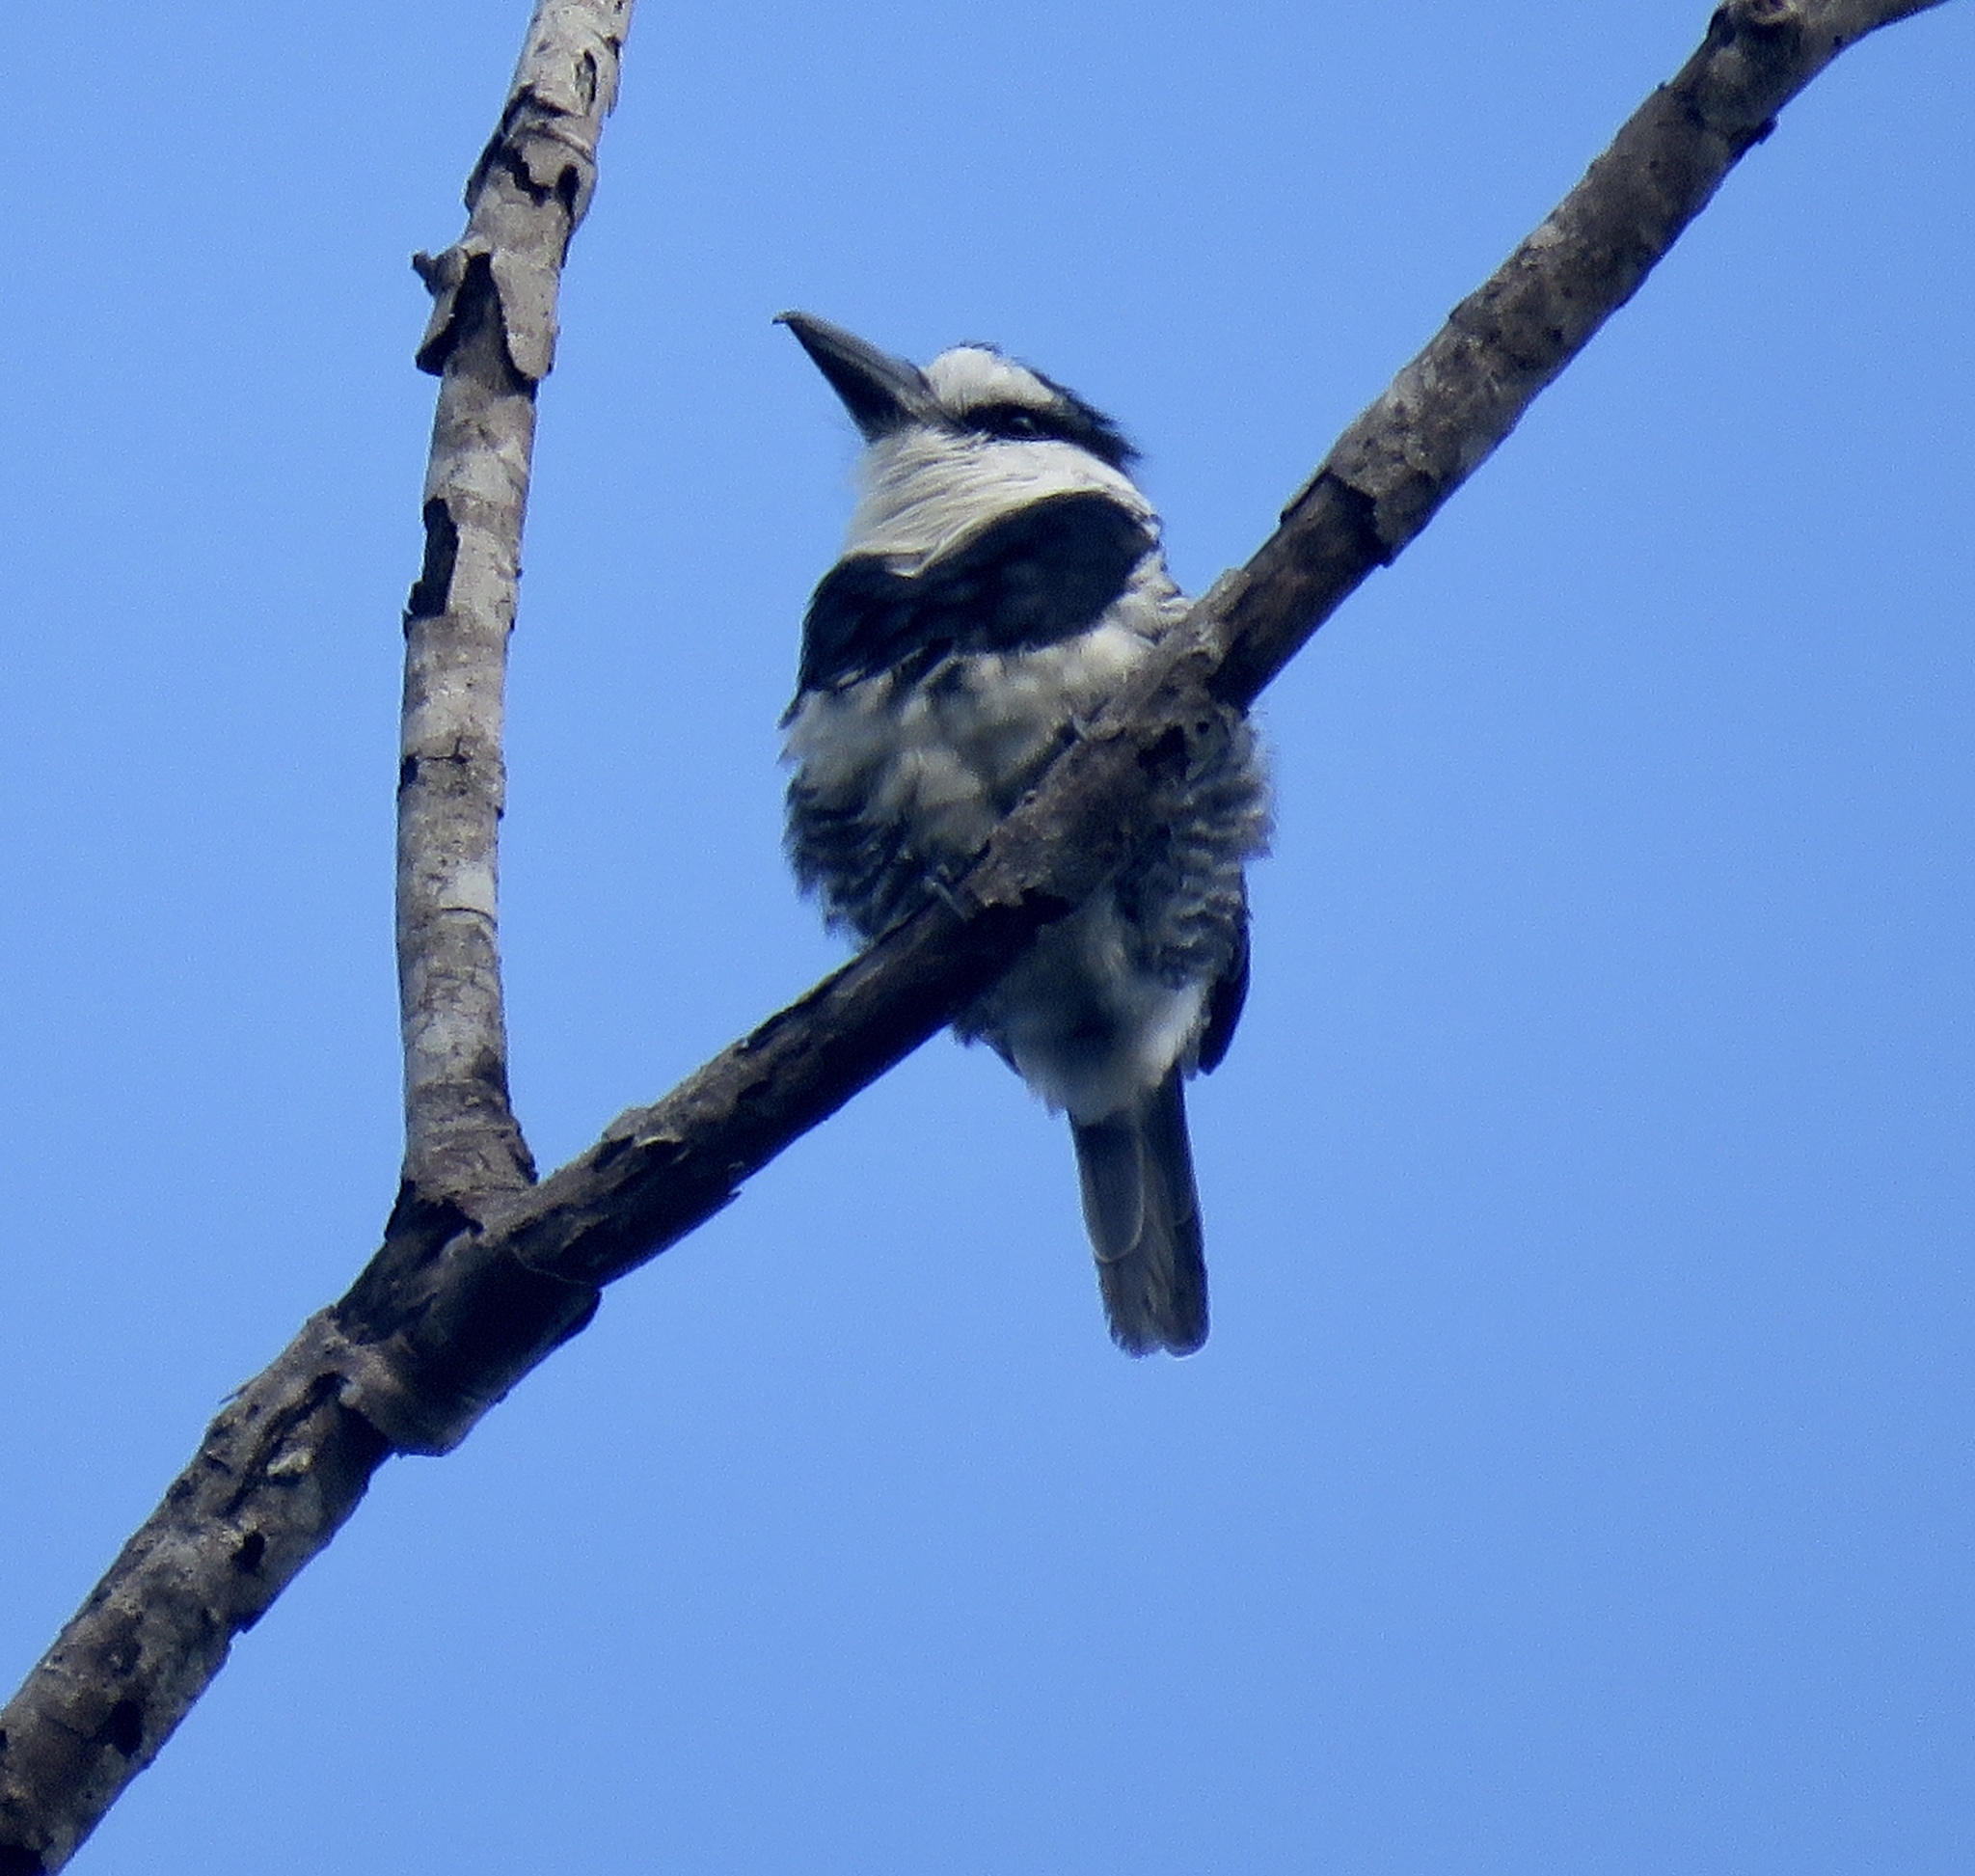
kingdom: Animalia
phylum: Chordata
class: Aves
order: Piciformes
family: Bucconidae
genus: Notharchus
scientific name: Notharchus hyperrhynchus
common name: White-necked puffbird
